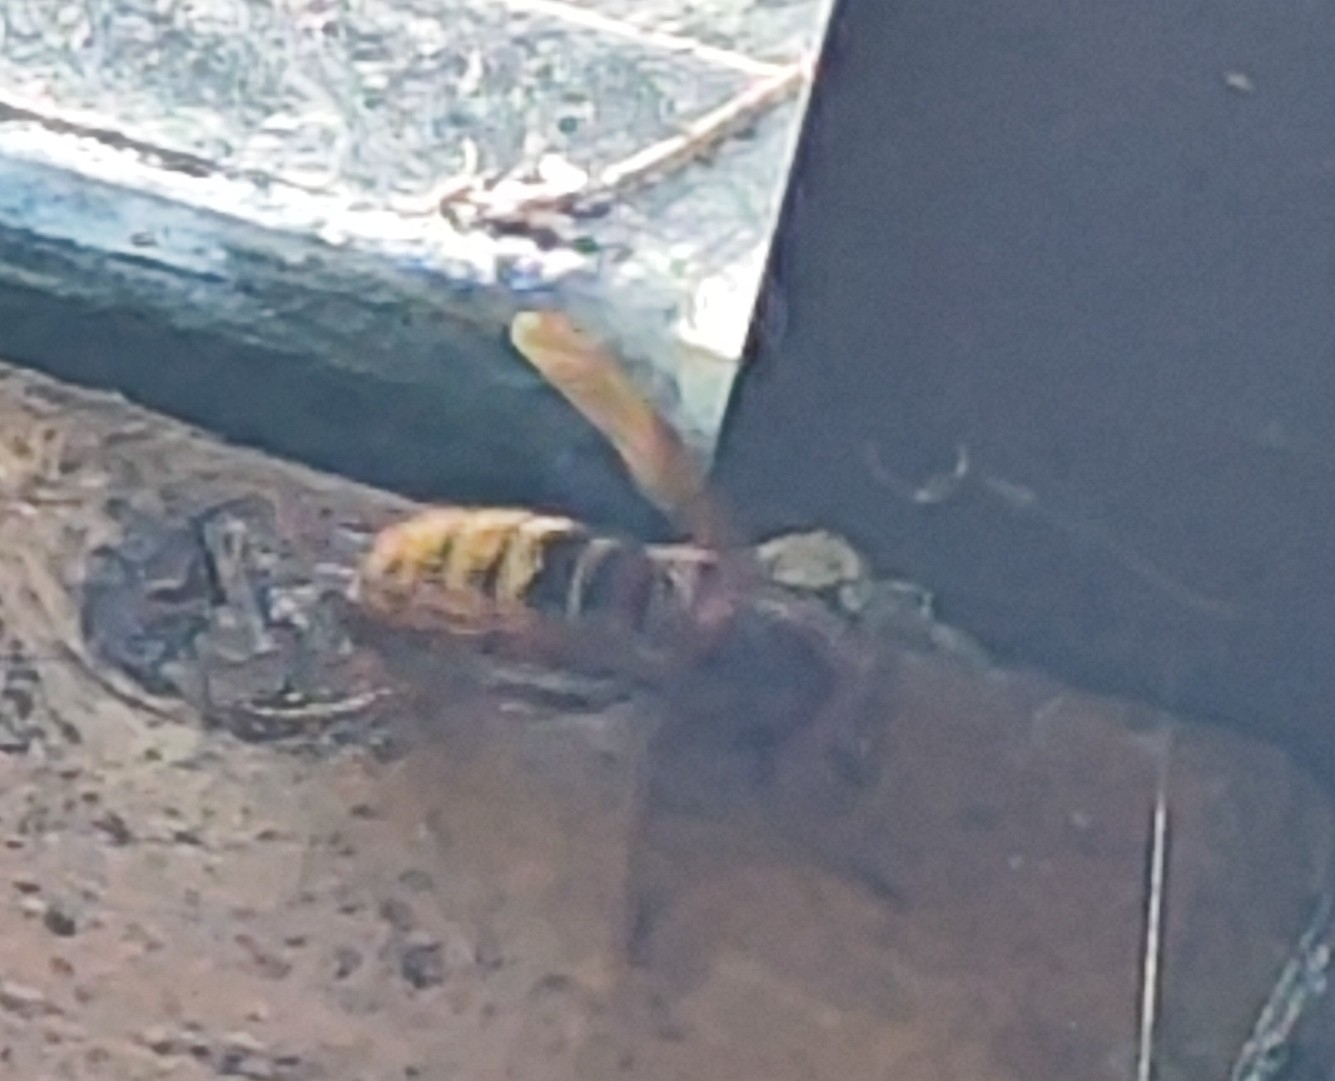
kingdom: Animalia
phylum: Arthropoda
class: Insecta
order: Hymenoptera
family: Vespidae
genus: Vespa
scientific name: Vespa crabro
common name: Hornet
